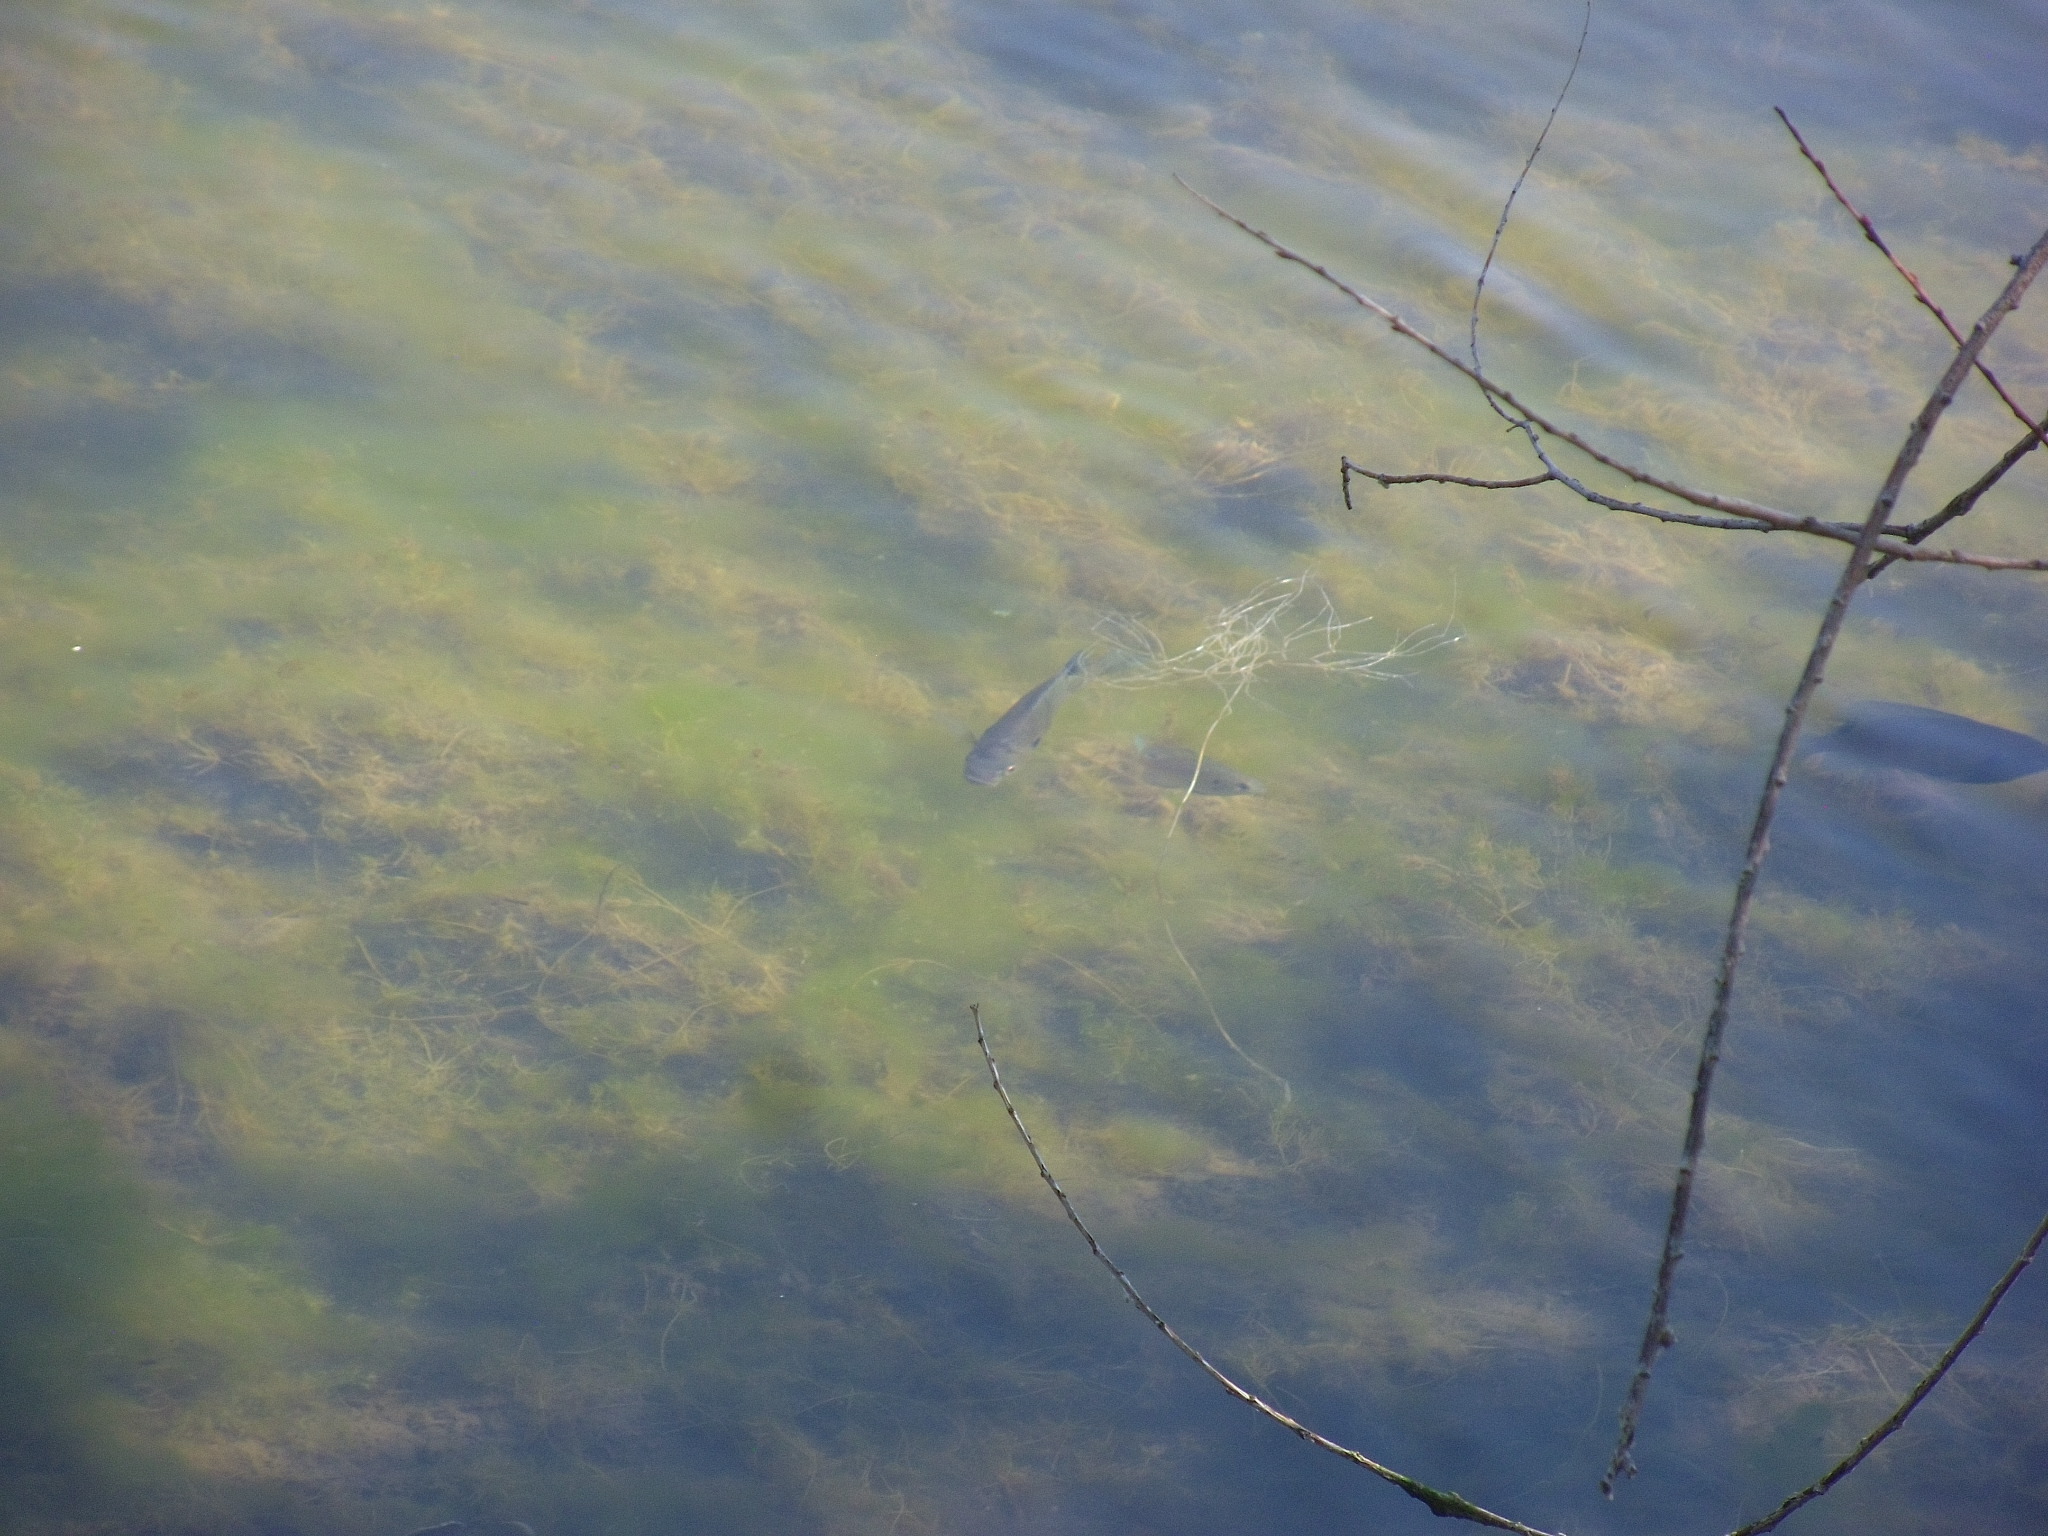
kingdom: Animalia
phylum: Chordata
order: Perciformes
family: Centrarchidae
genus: Lepomis
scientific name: Lepomis cyanellus
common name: Green sunfish
